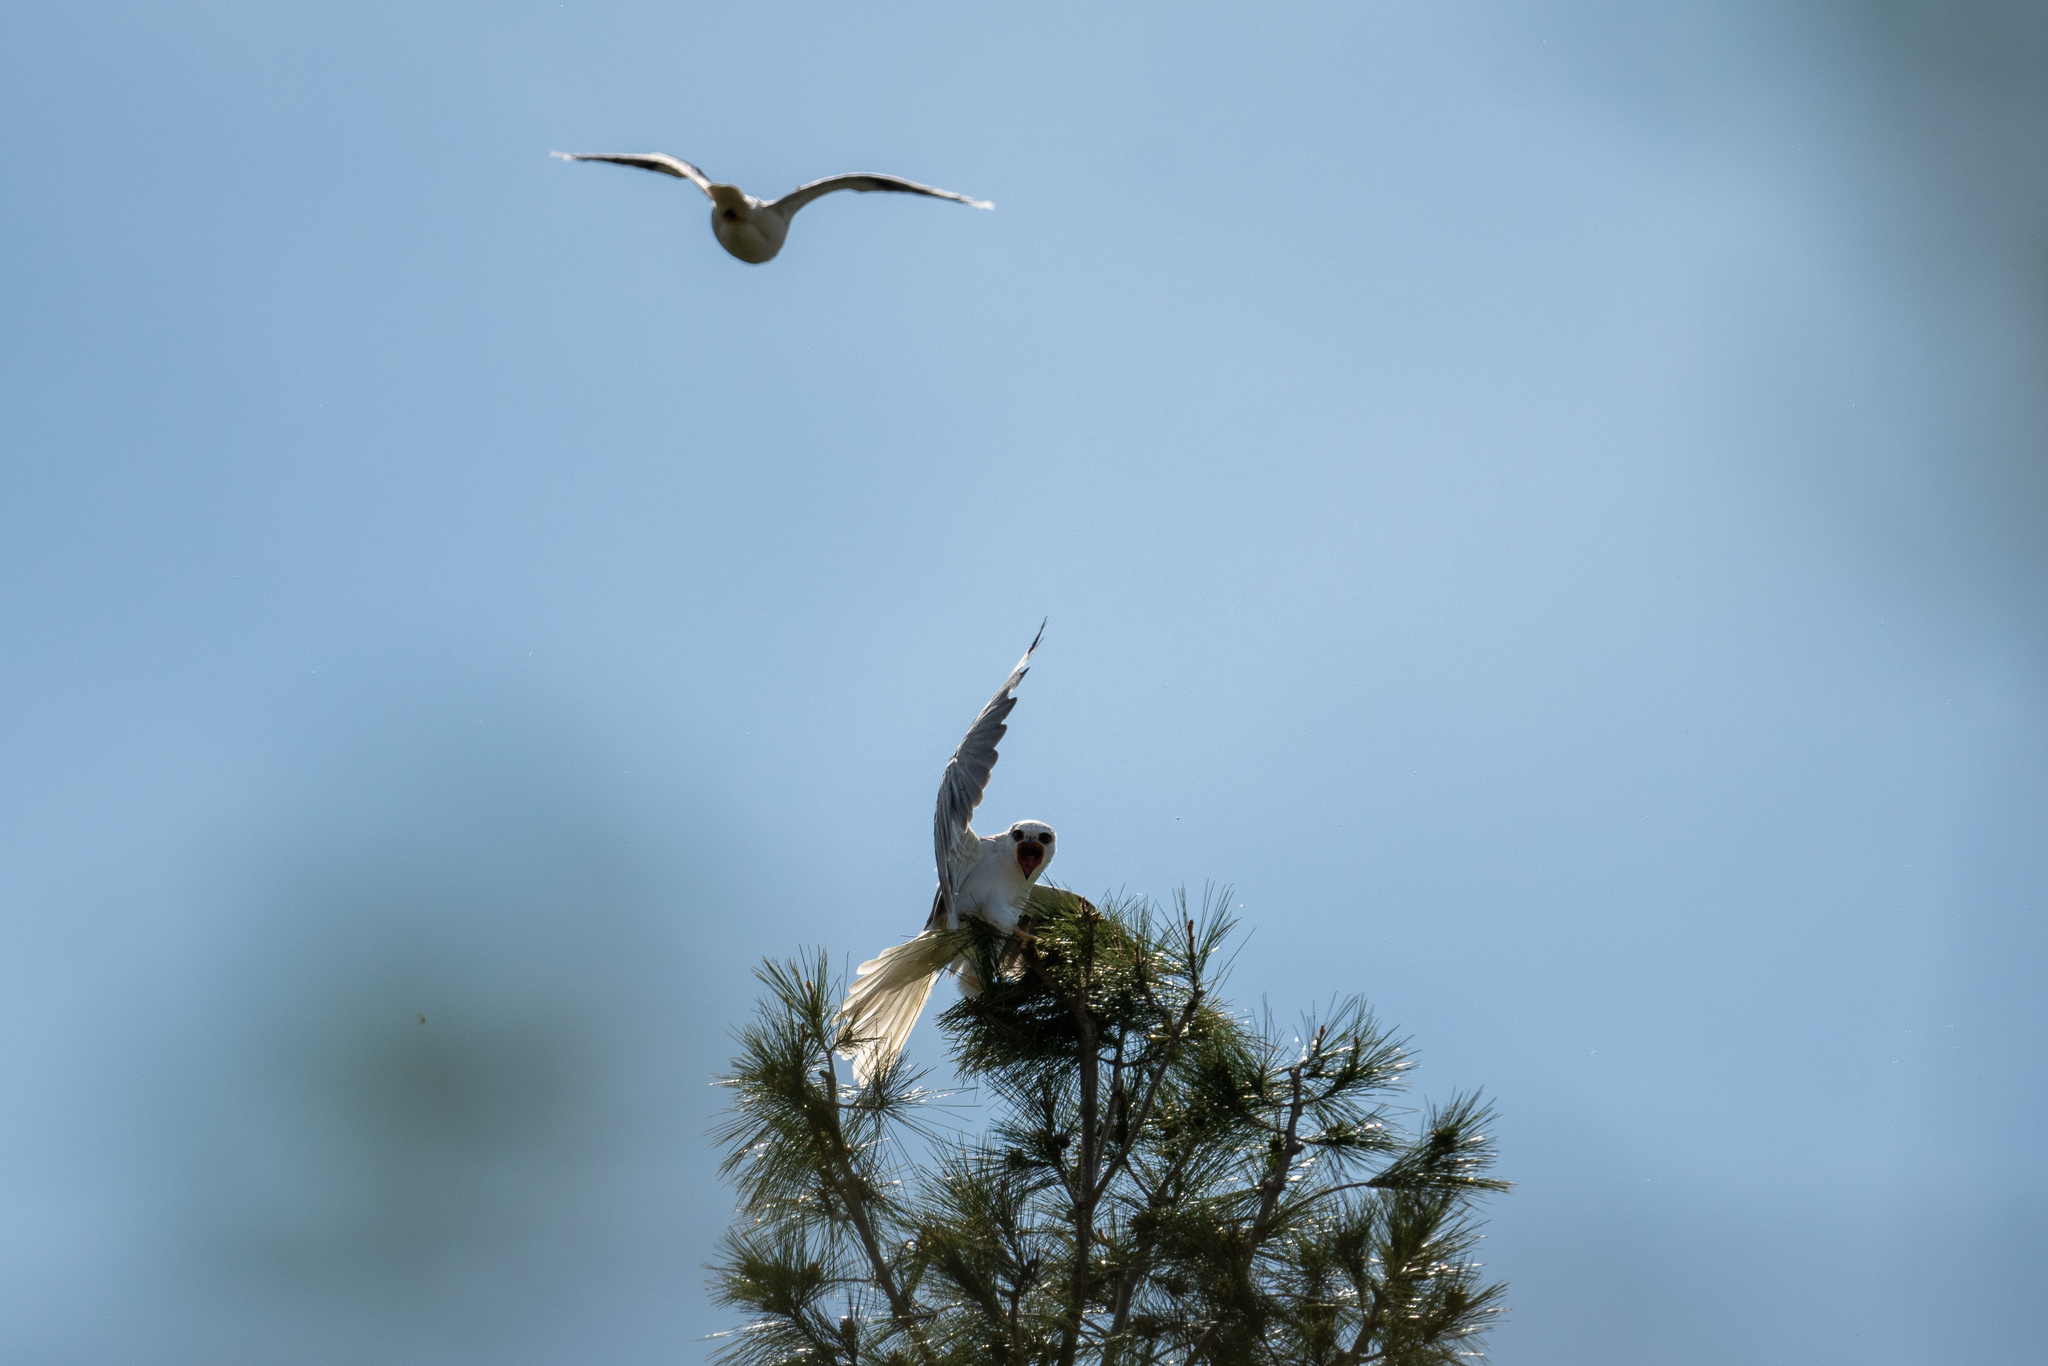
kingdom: Animalia
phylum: Chordata
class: Aves
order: Accipitriformes
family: Accipitridae
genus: Elanus
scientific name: Elanus leucurus
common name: White-tailed kite
